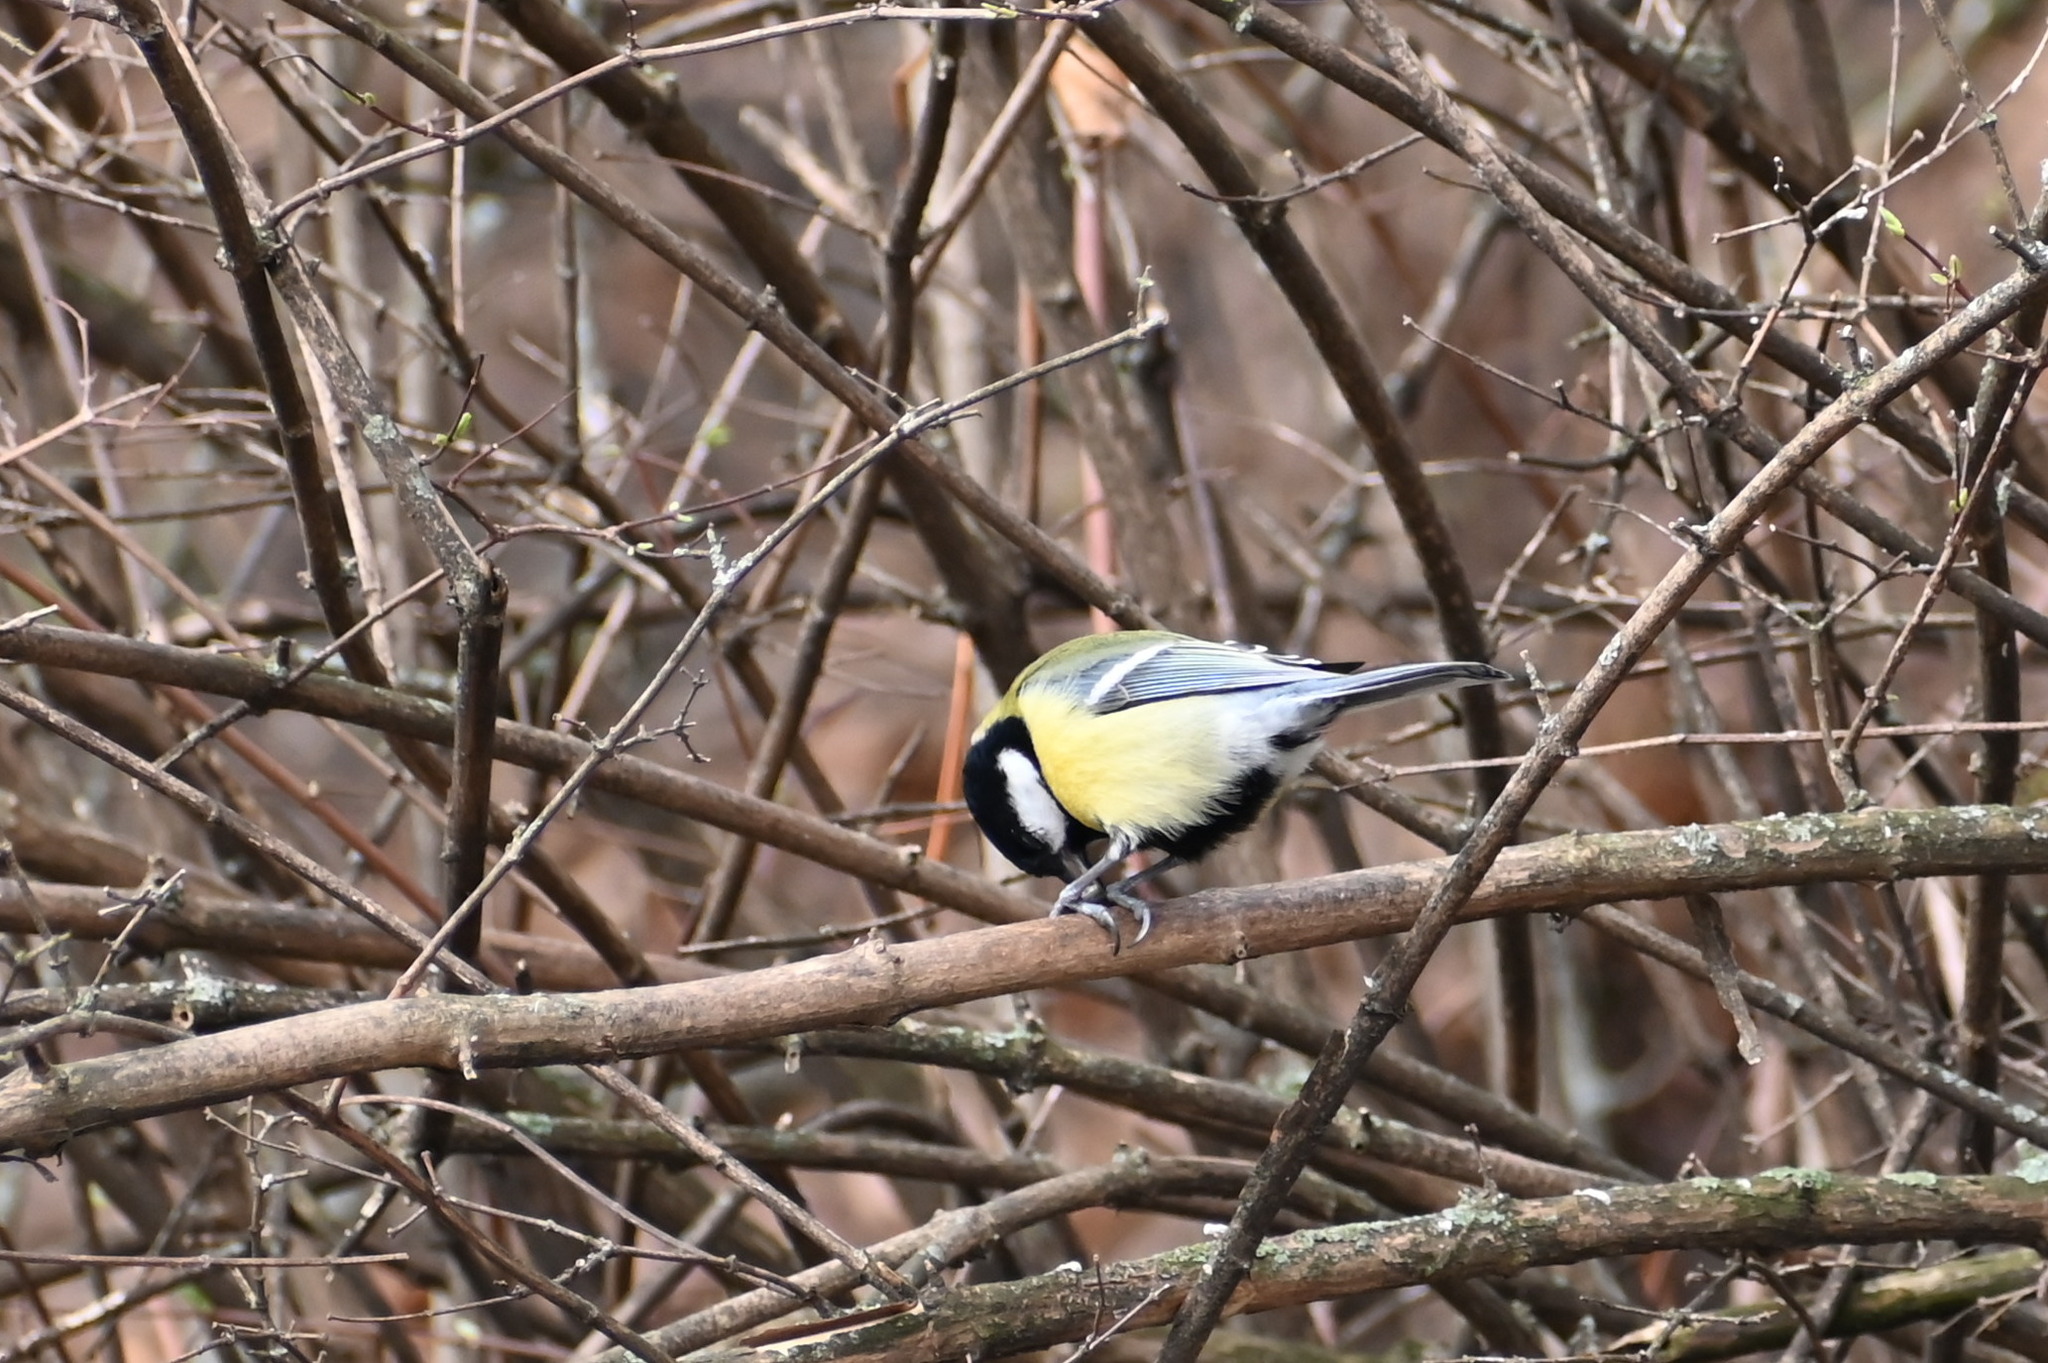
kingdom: Animalia
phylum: Chordata
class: Aves
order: Passeriformes
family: Paridae
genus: Parus
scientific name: Parus major
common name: Great tit
